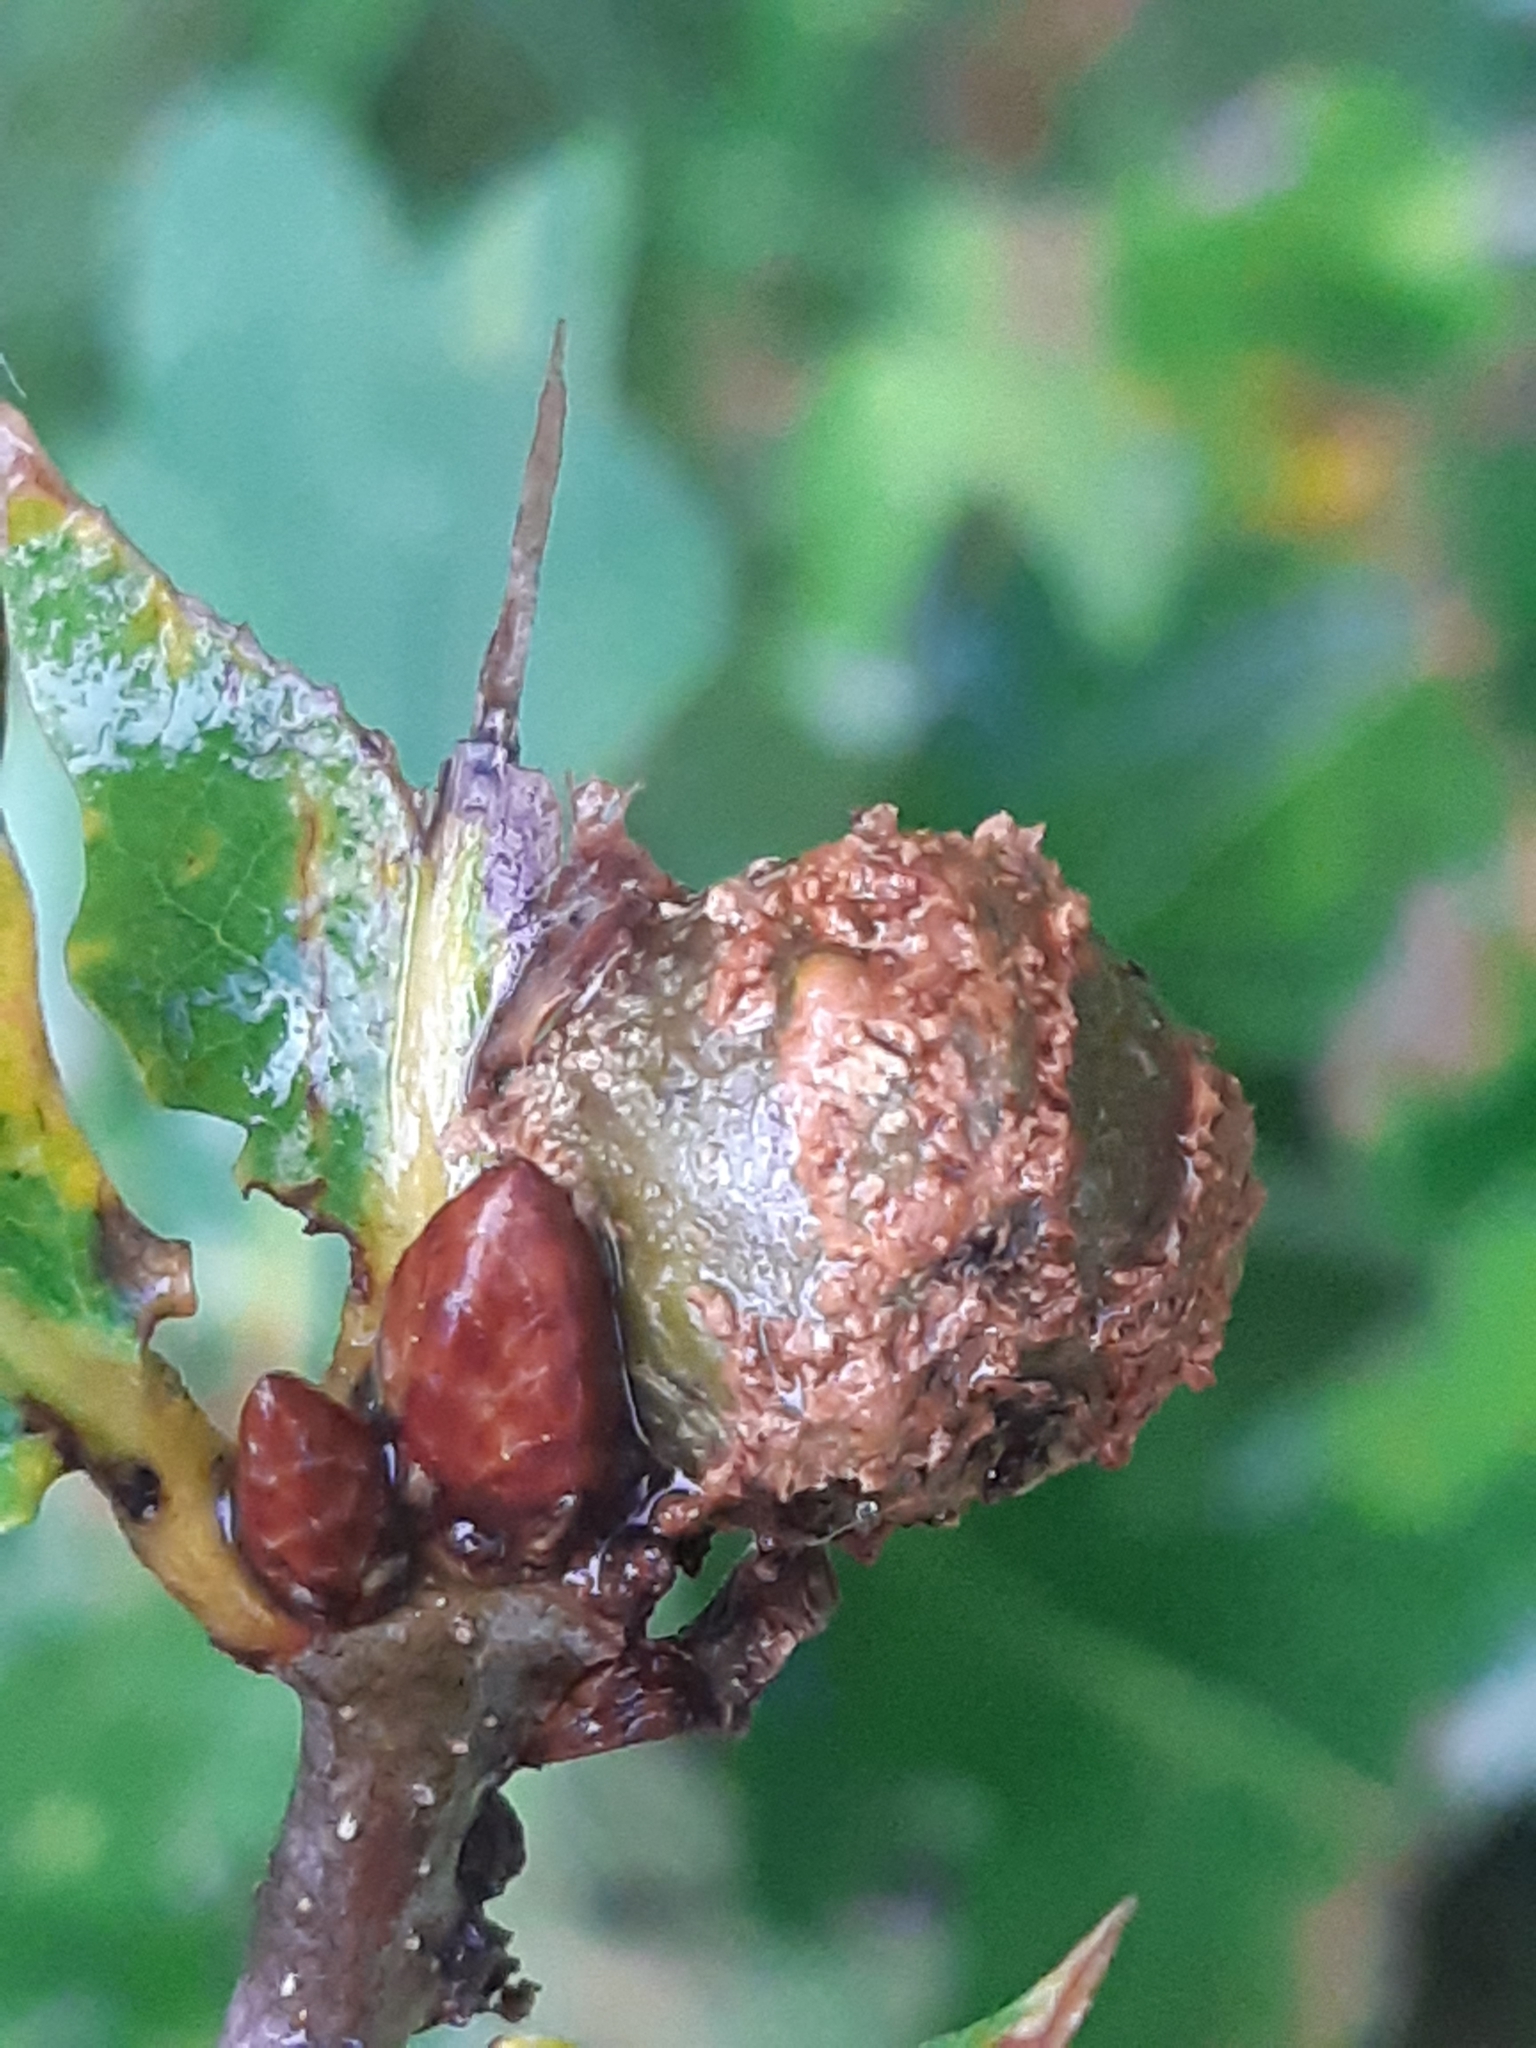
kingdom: Animalia
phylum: Arthropoda
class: Insecta
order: Hymenoptera
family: Cynipidae
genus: Andricus
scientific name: Andricus lignicolus
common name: Cola-nut gall
